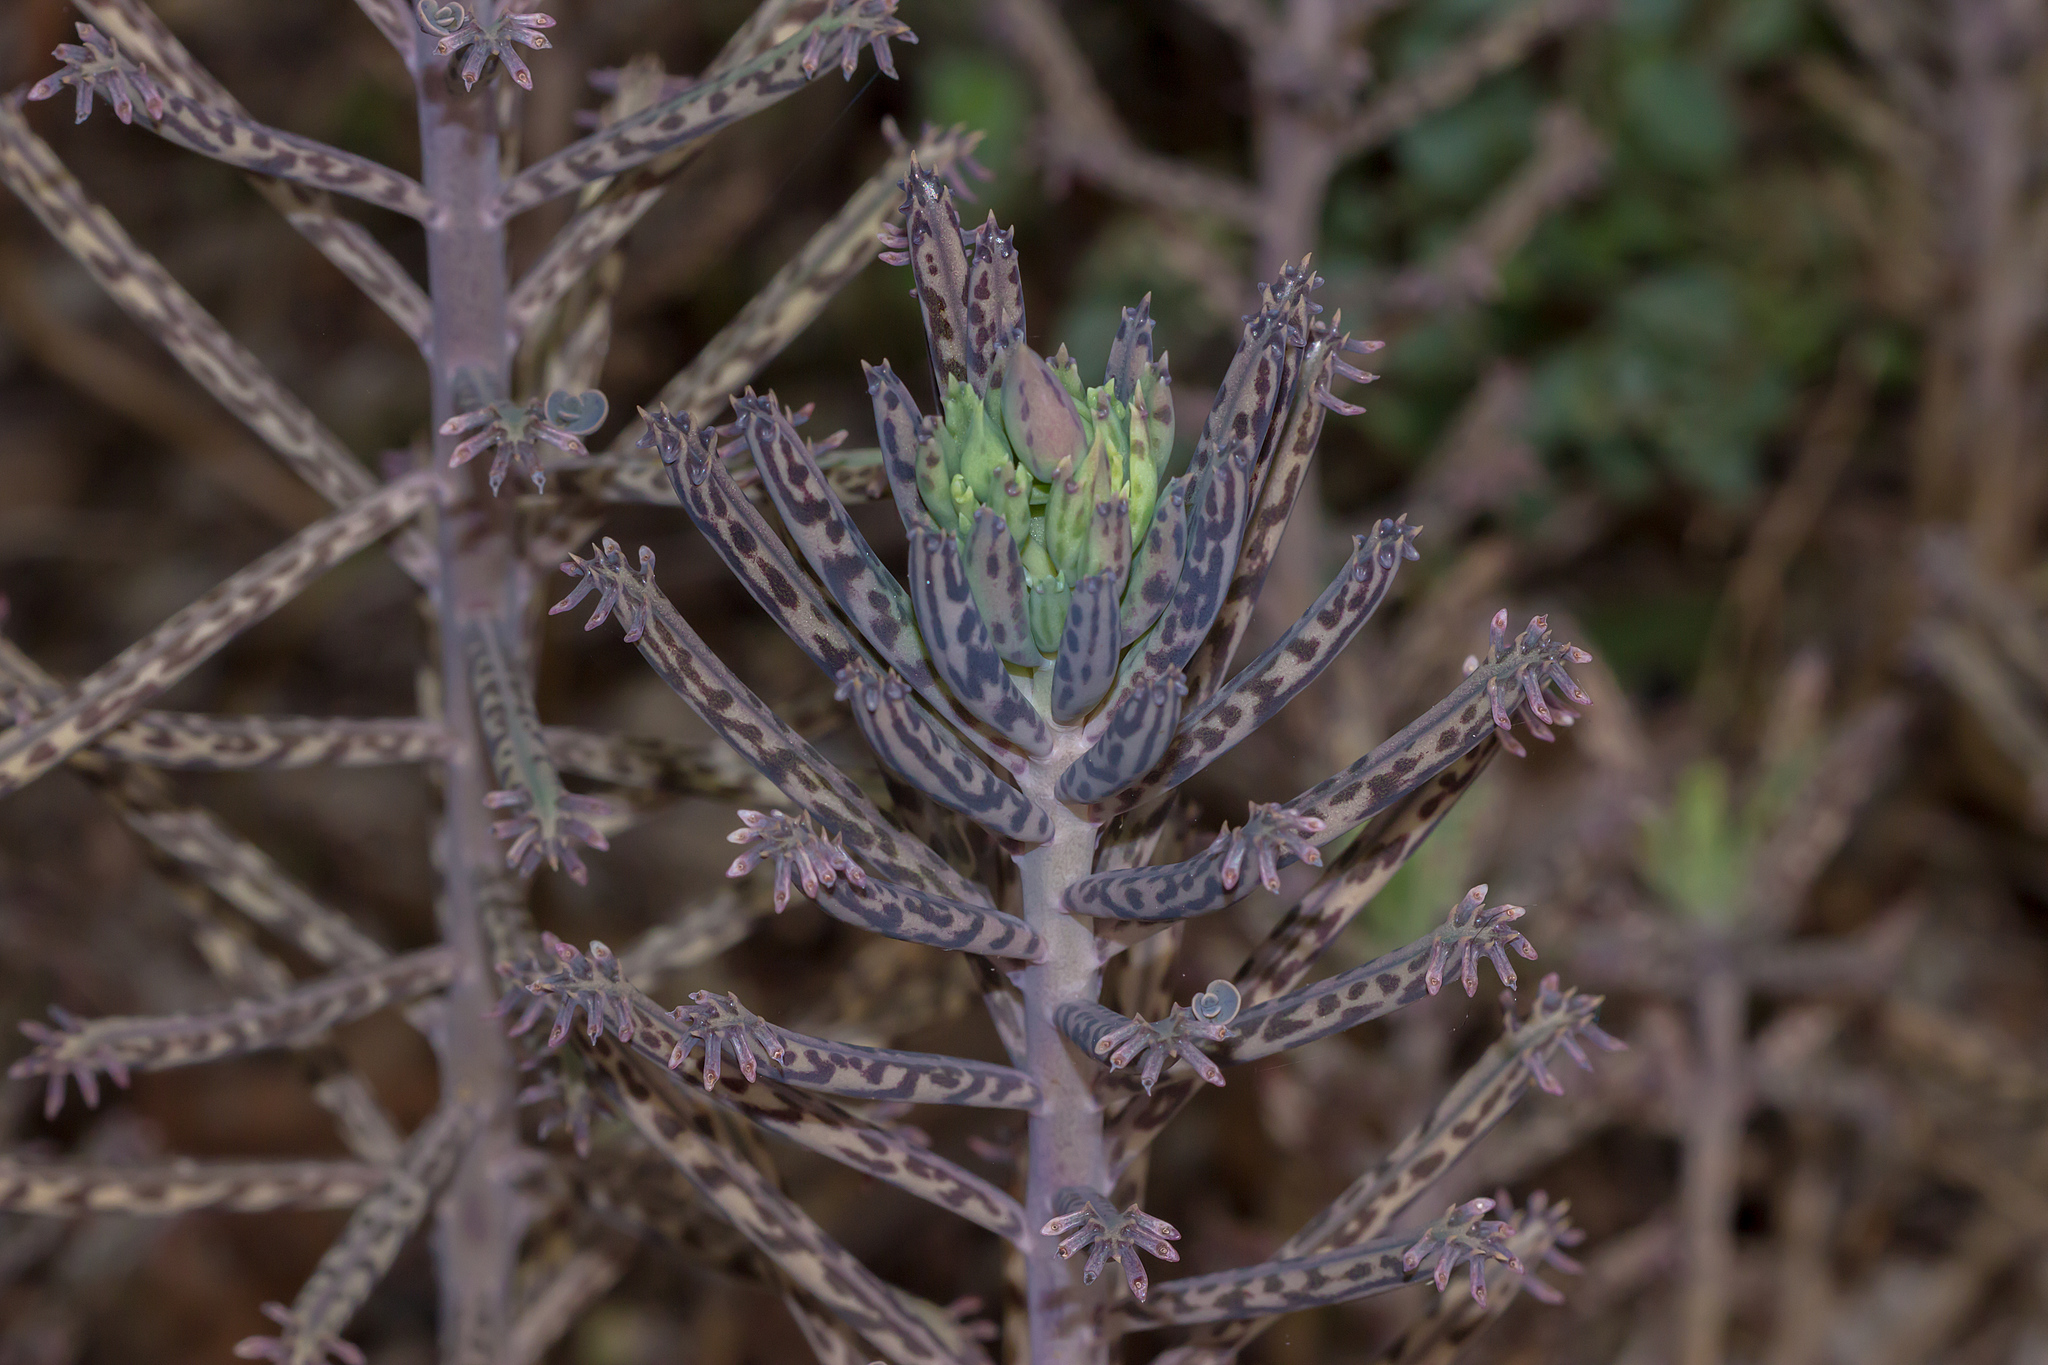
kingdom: Plantae
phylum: Tracheophyta
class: Magnoliopsida
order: Saxifragales
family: Crassulaceae
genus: Kalanchoe
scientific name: Kalanchoe delagoensis
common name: Chandelier plant
